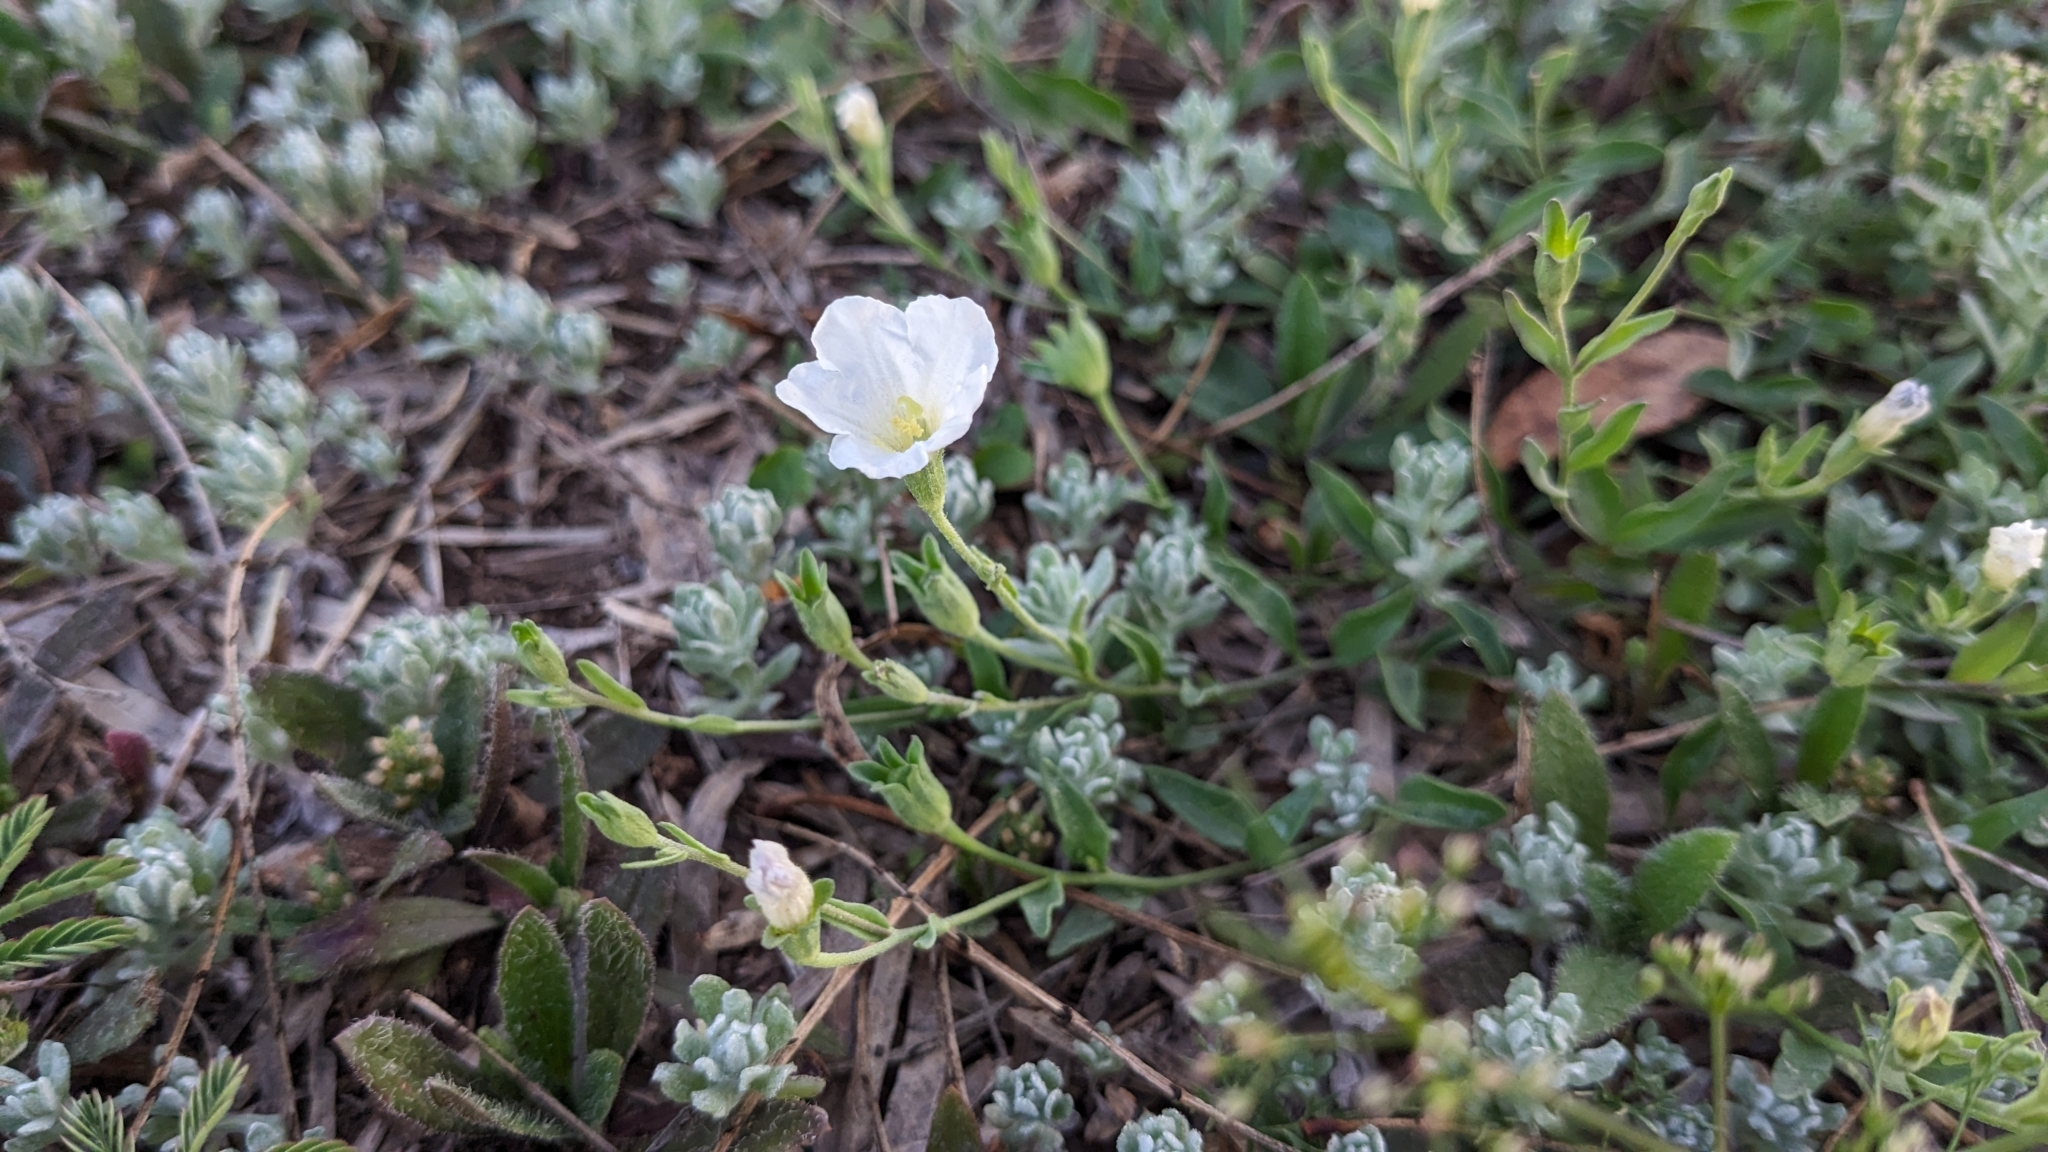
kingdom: Plantae
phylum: Tracheophyta
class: Magnoliopsida
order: Solanales
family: Solanaceae
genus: Salpiglossis
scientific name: Salpiglossis erecta
